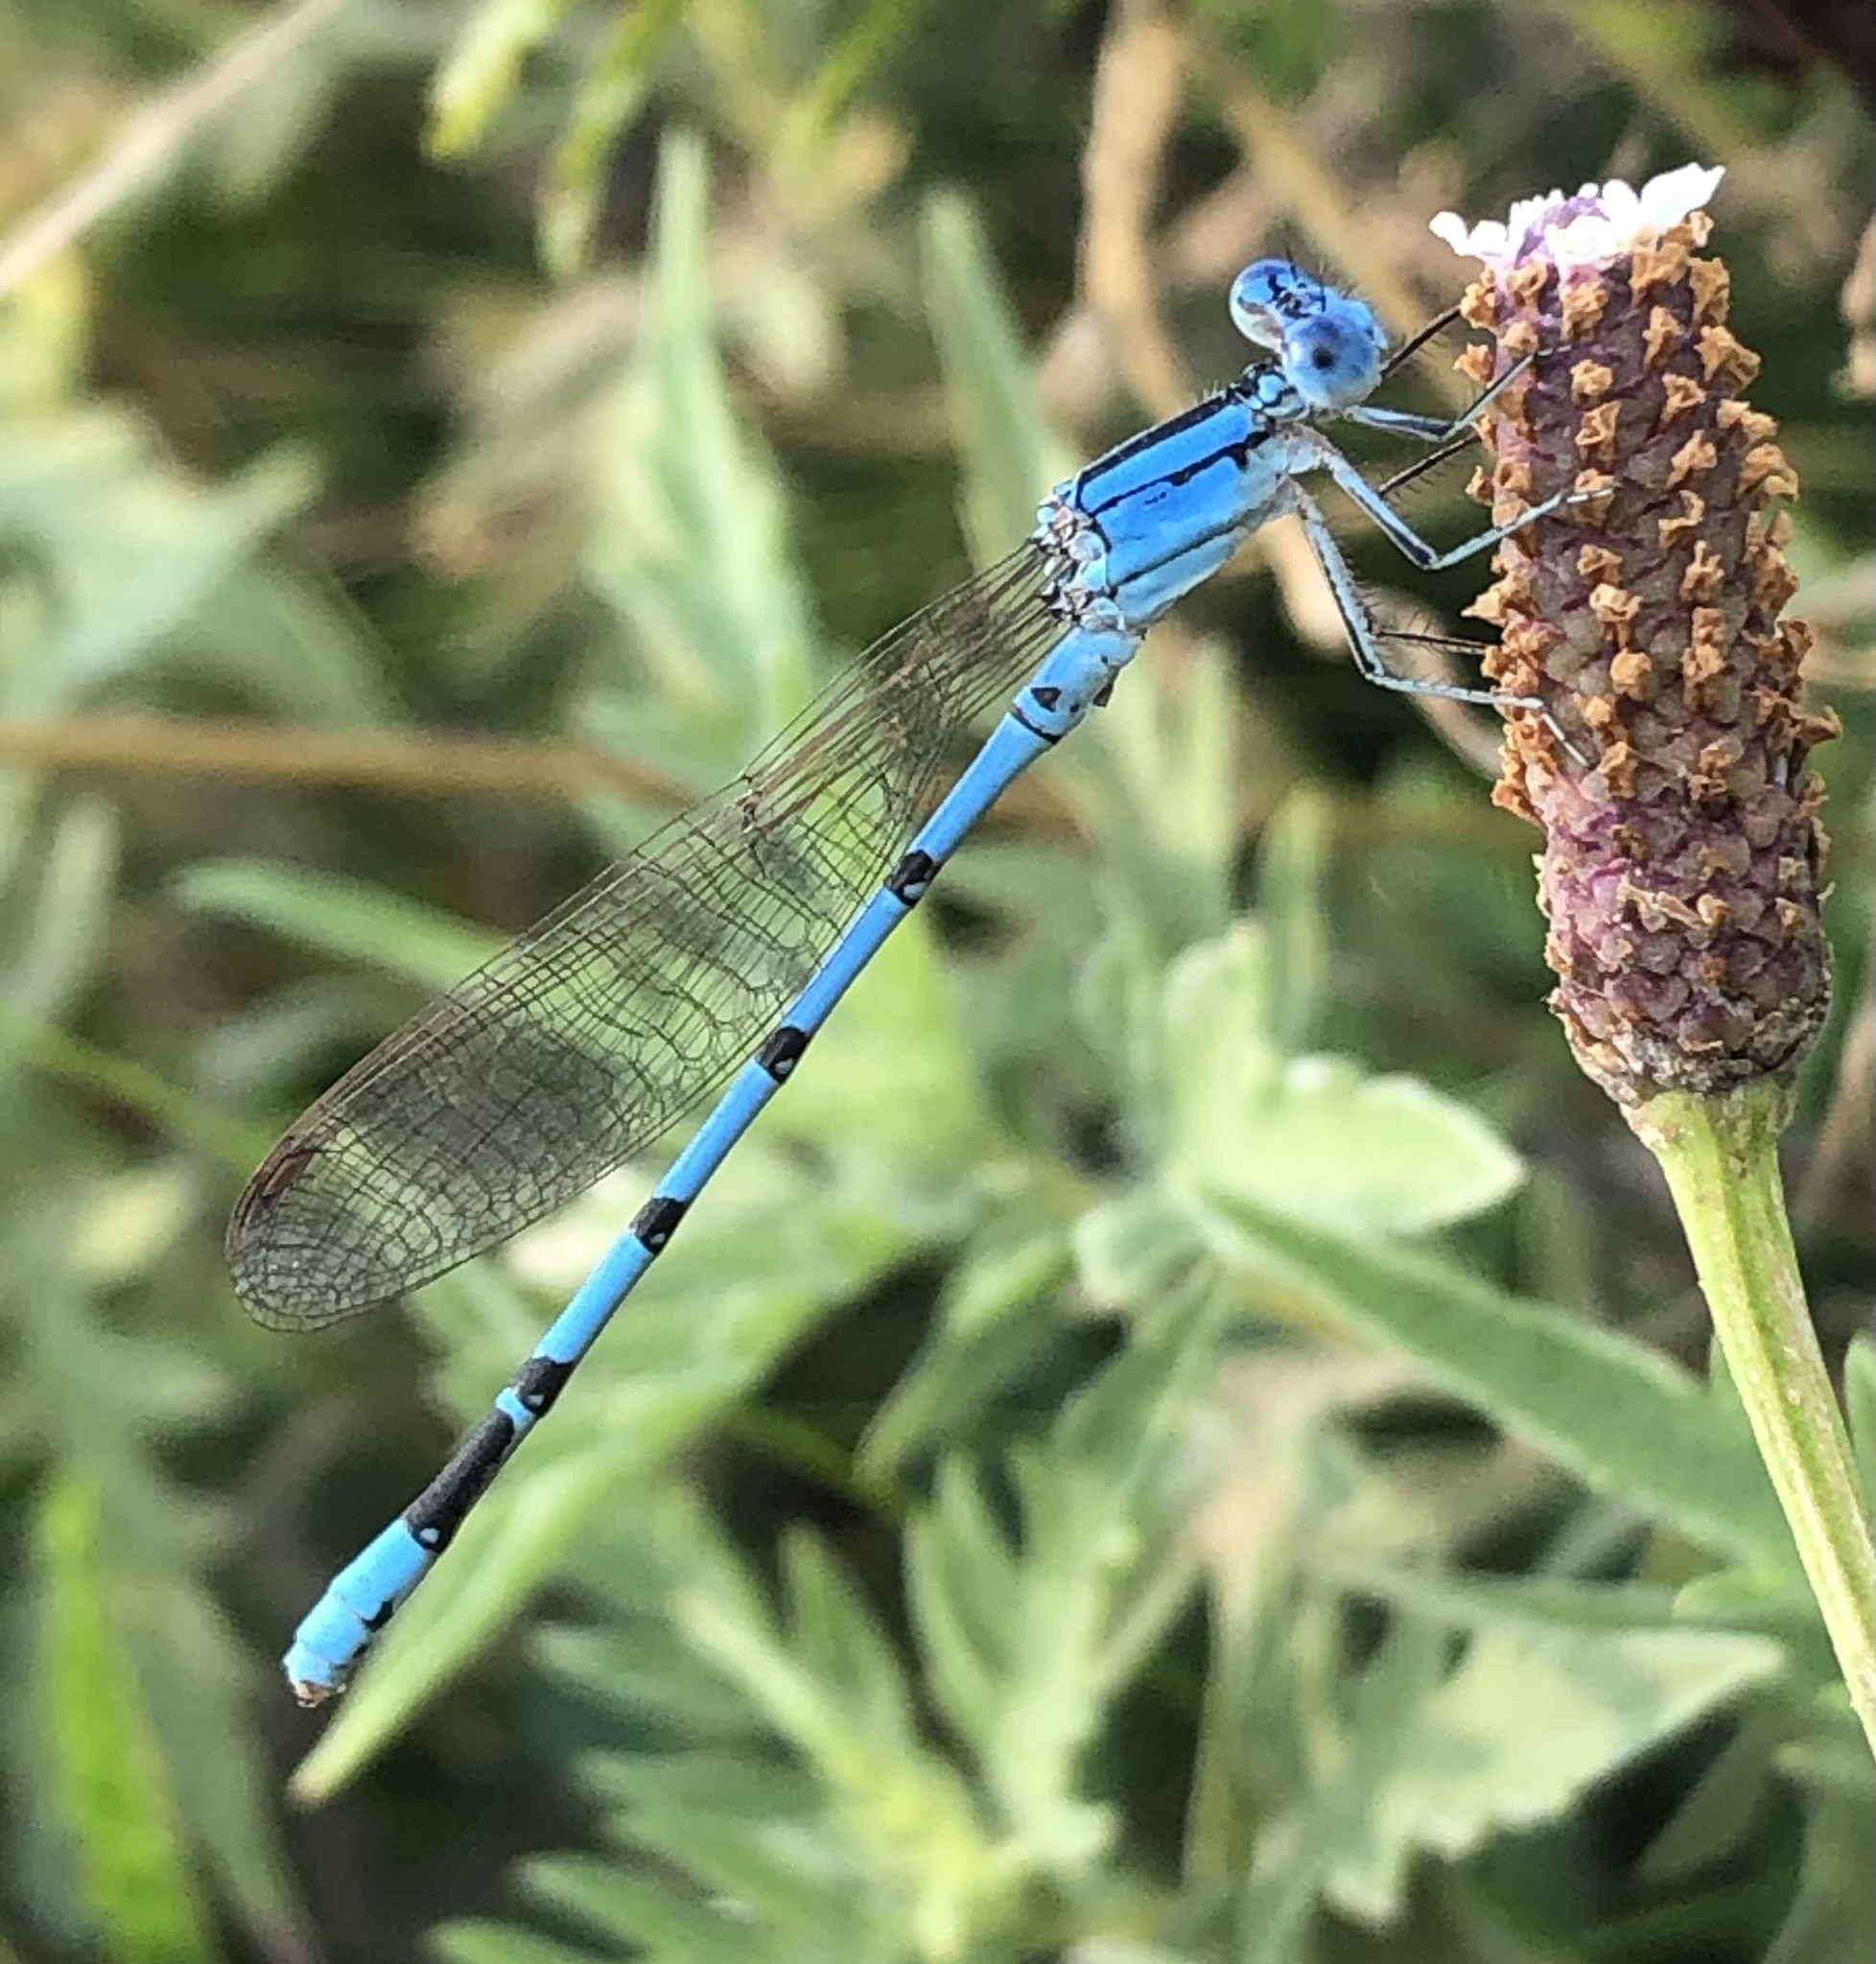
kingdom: Animalia
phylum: Arthropoda
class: Insecta
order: Odonata
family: Coenagrionidae
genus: Argia
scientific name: Argia nahuana
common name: Aztec dancer
